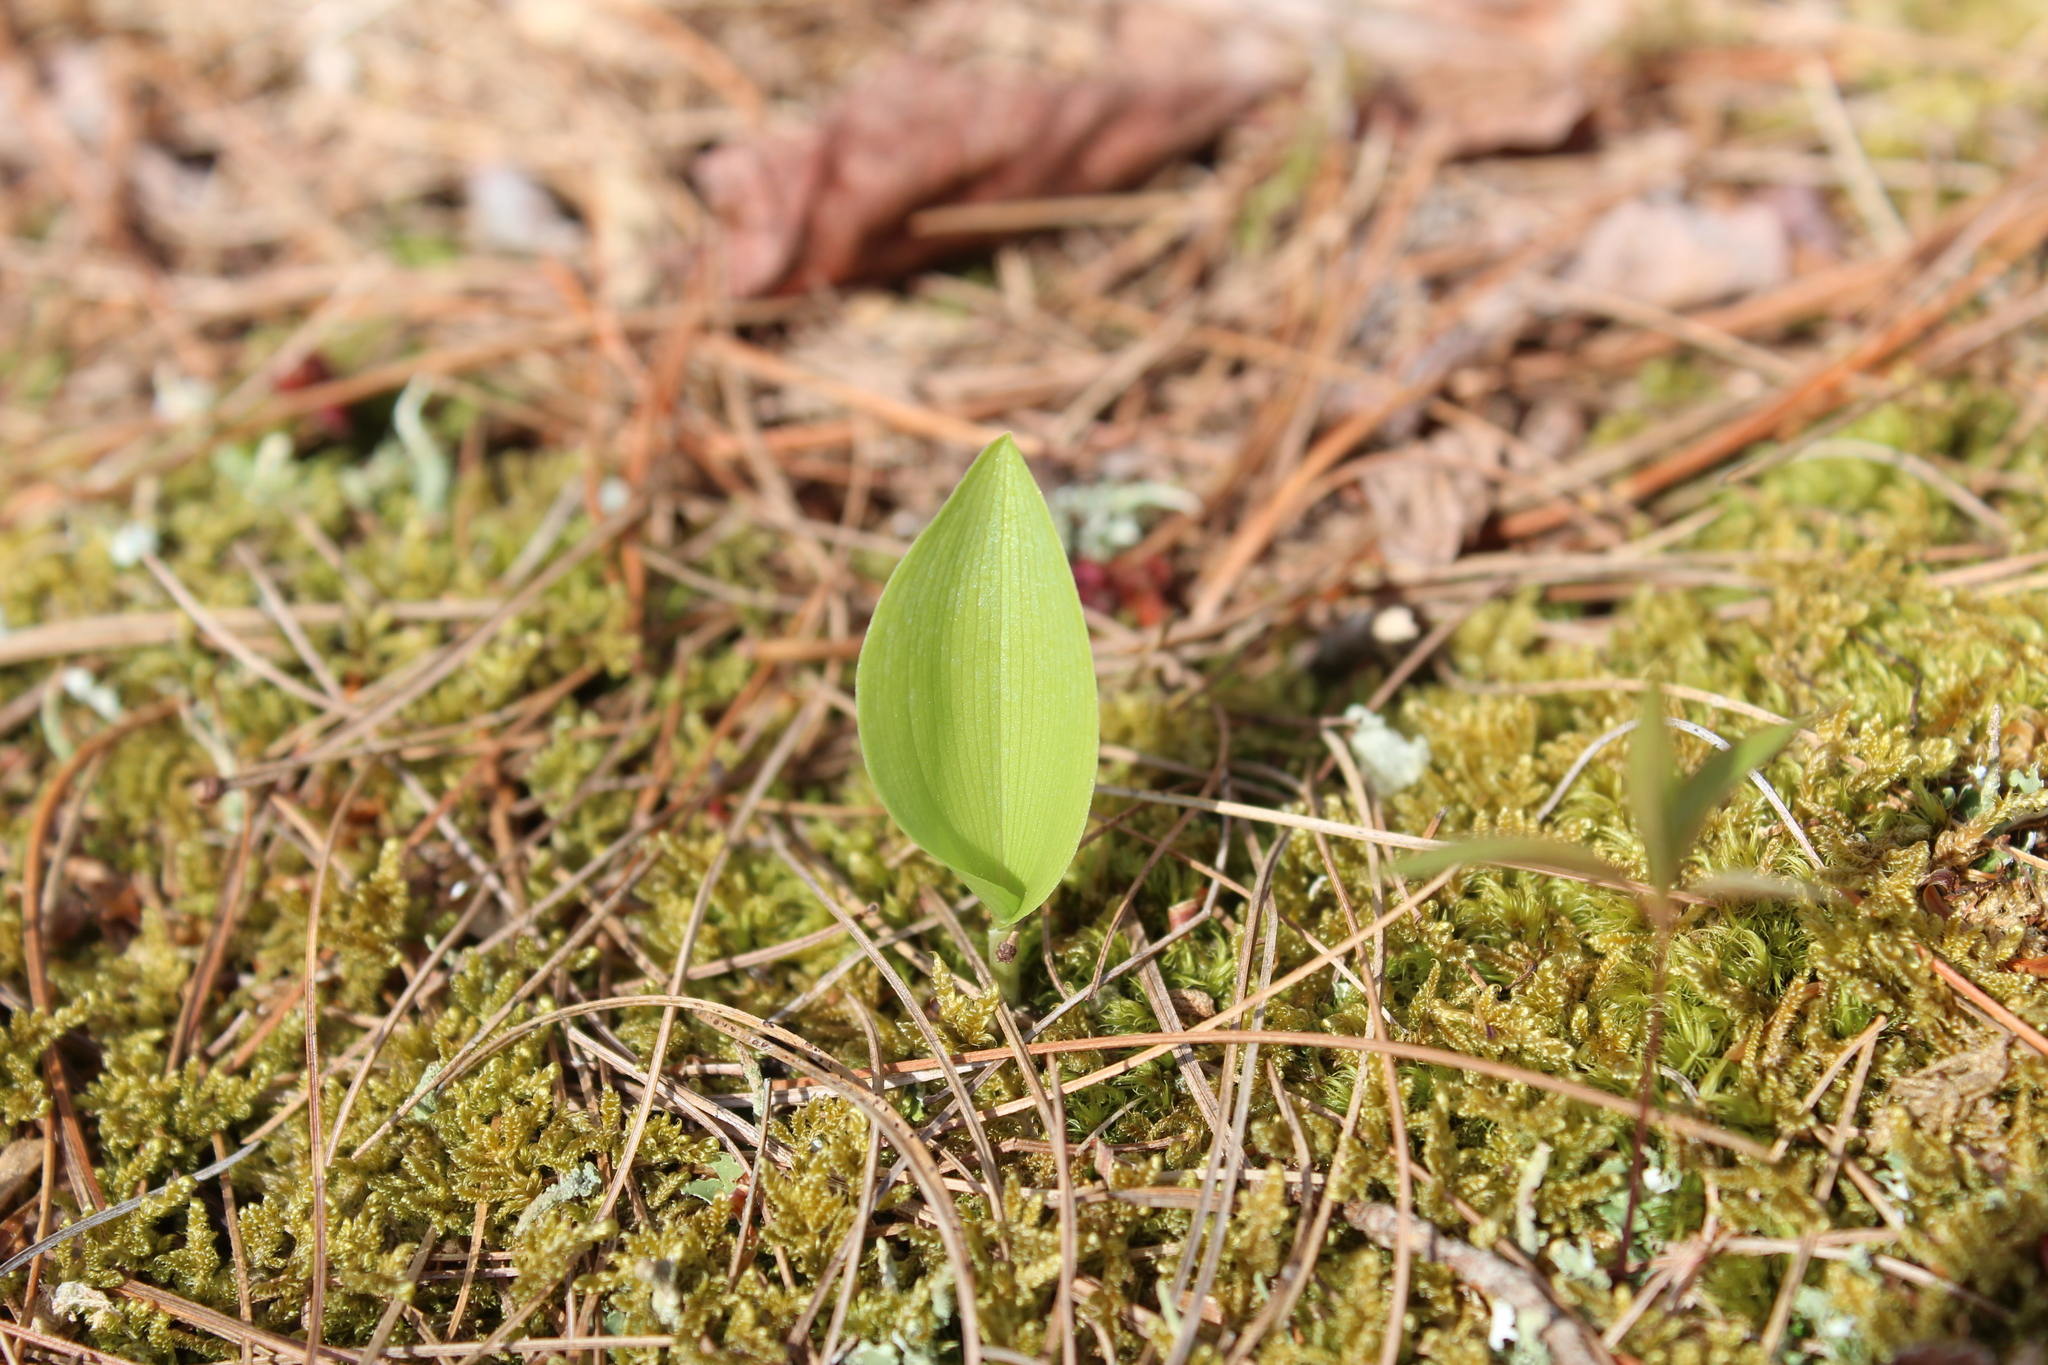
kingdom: Plantae
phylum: Tracheophyta
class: Liliopsida
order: Asparagales
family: Asparagaceae
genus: Maianthemum
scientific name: Maianthemum canadense
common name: False lily-of-the-valley
